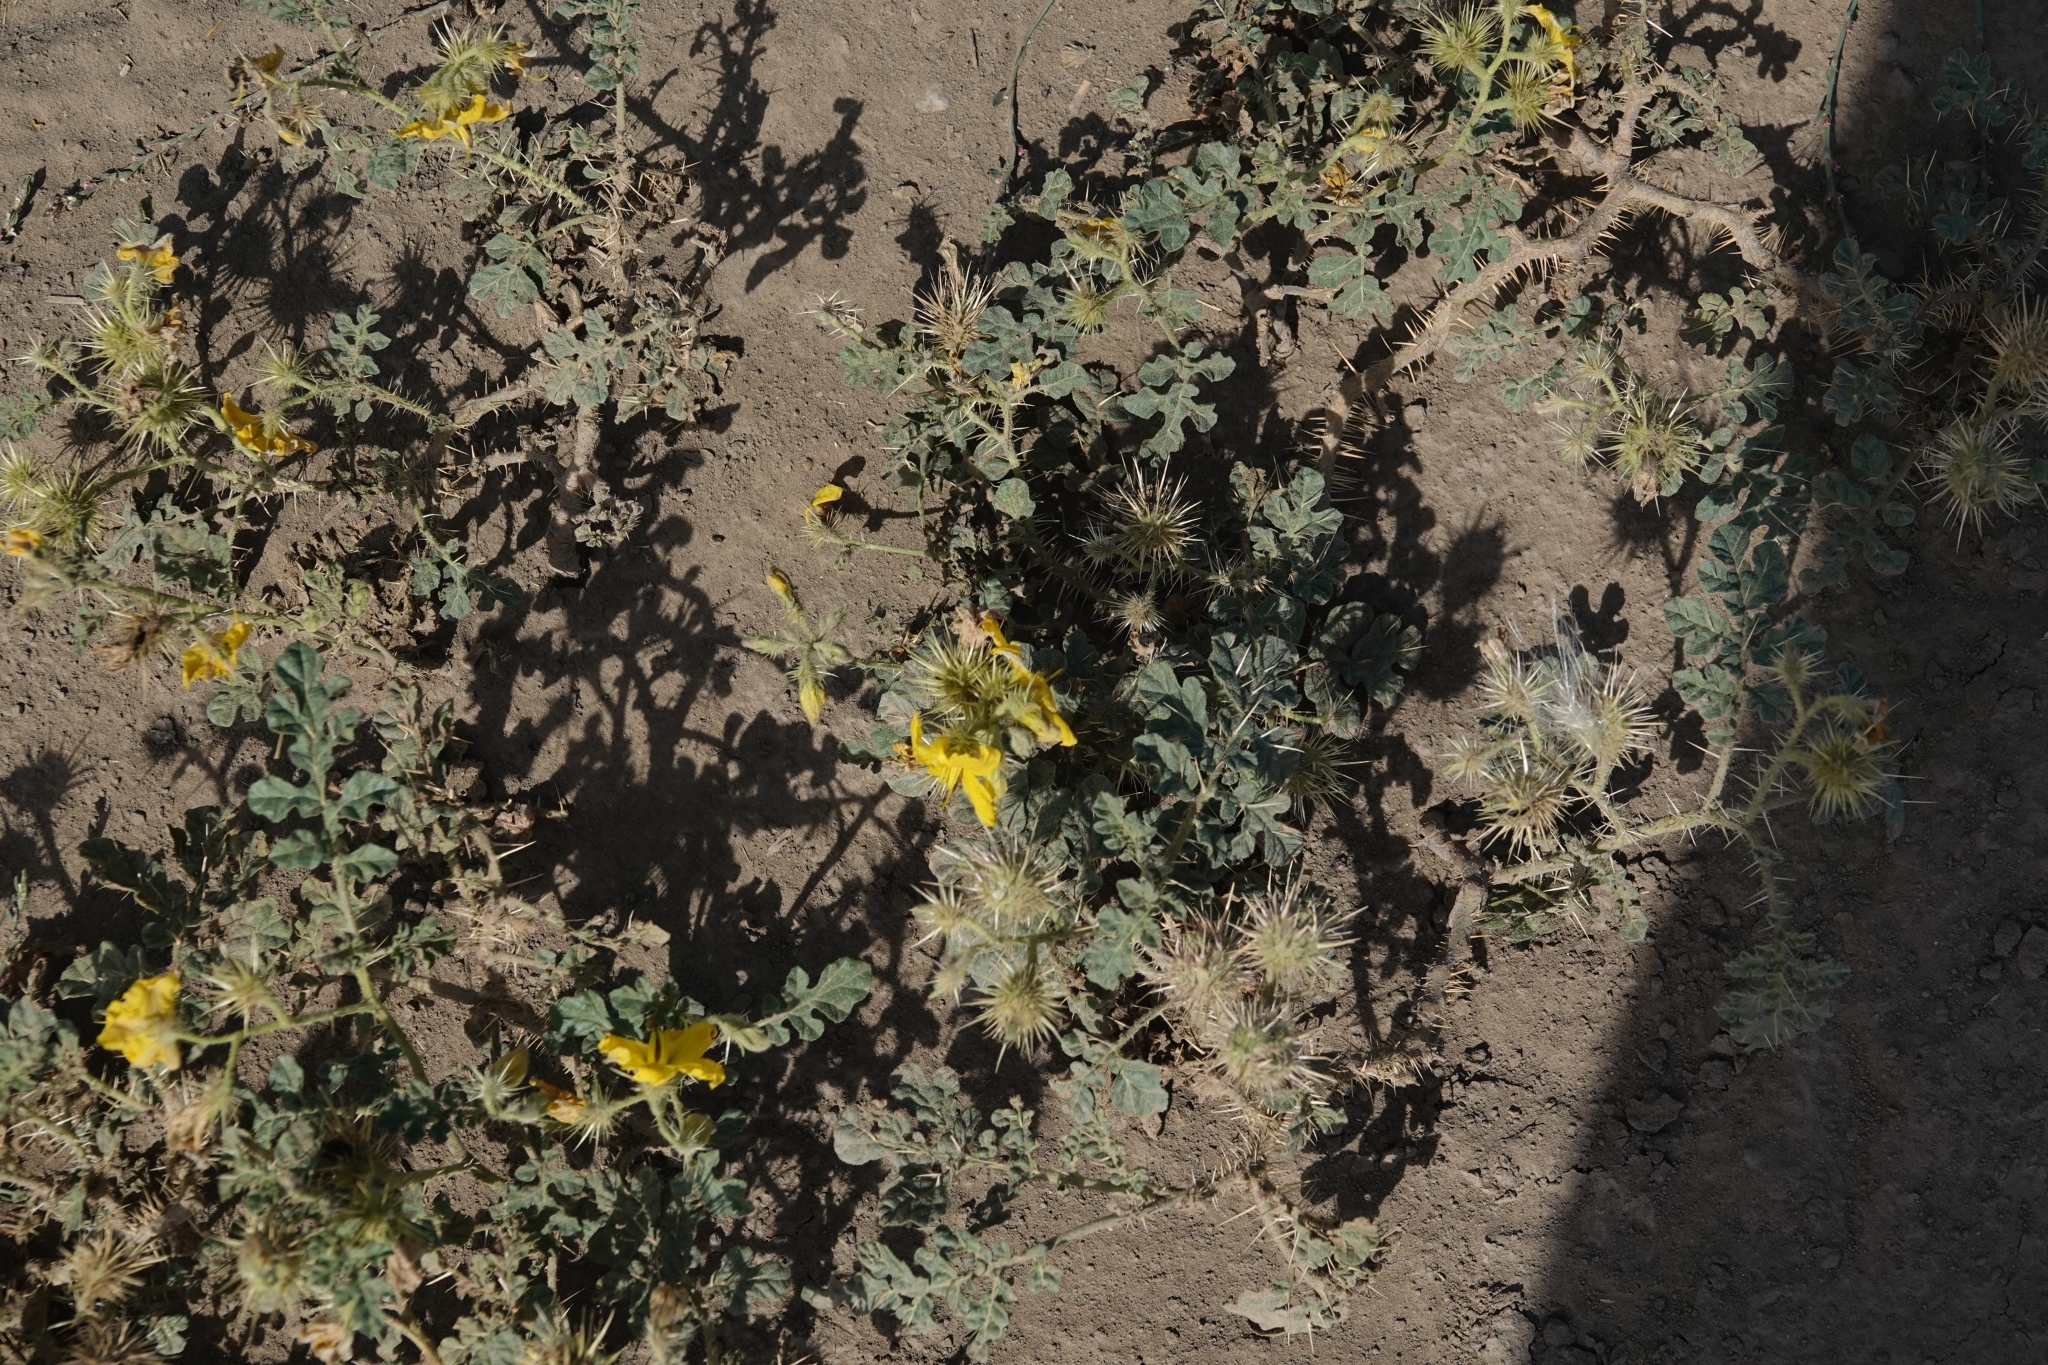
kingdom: Plantae
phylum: Tracheophyta
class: Magnoliopsida
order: Solanales
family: Solanaceae
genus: Solanum
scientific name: Solanum angustifolium
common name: Buffalobur nightshade
